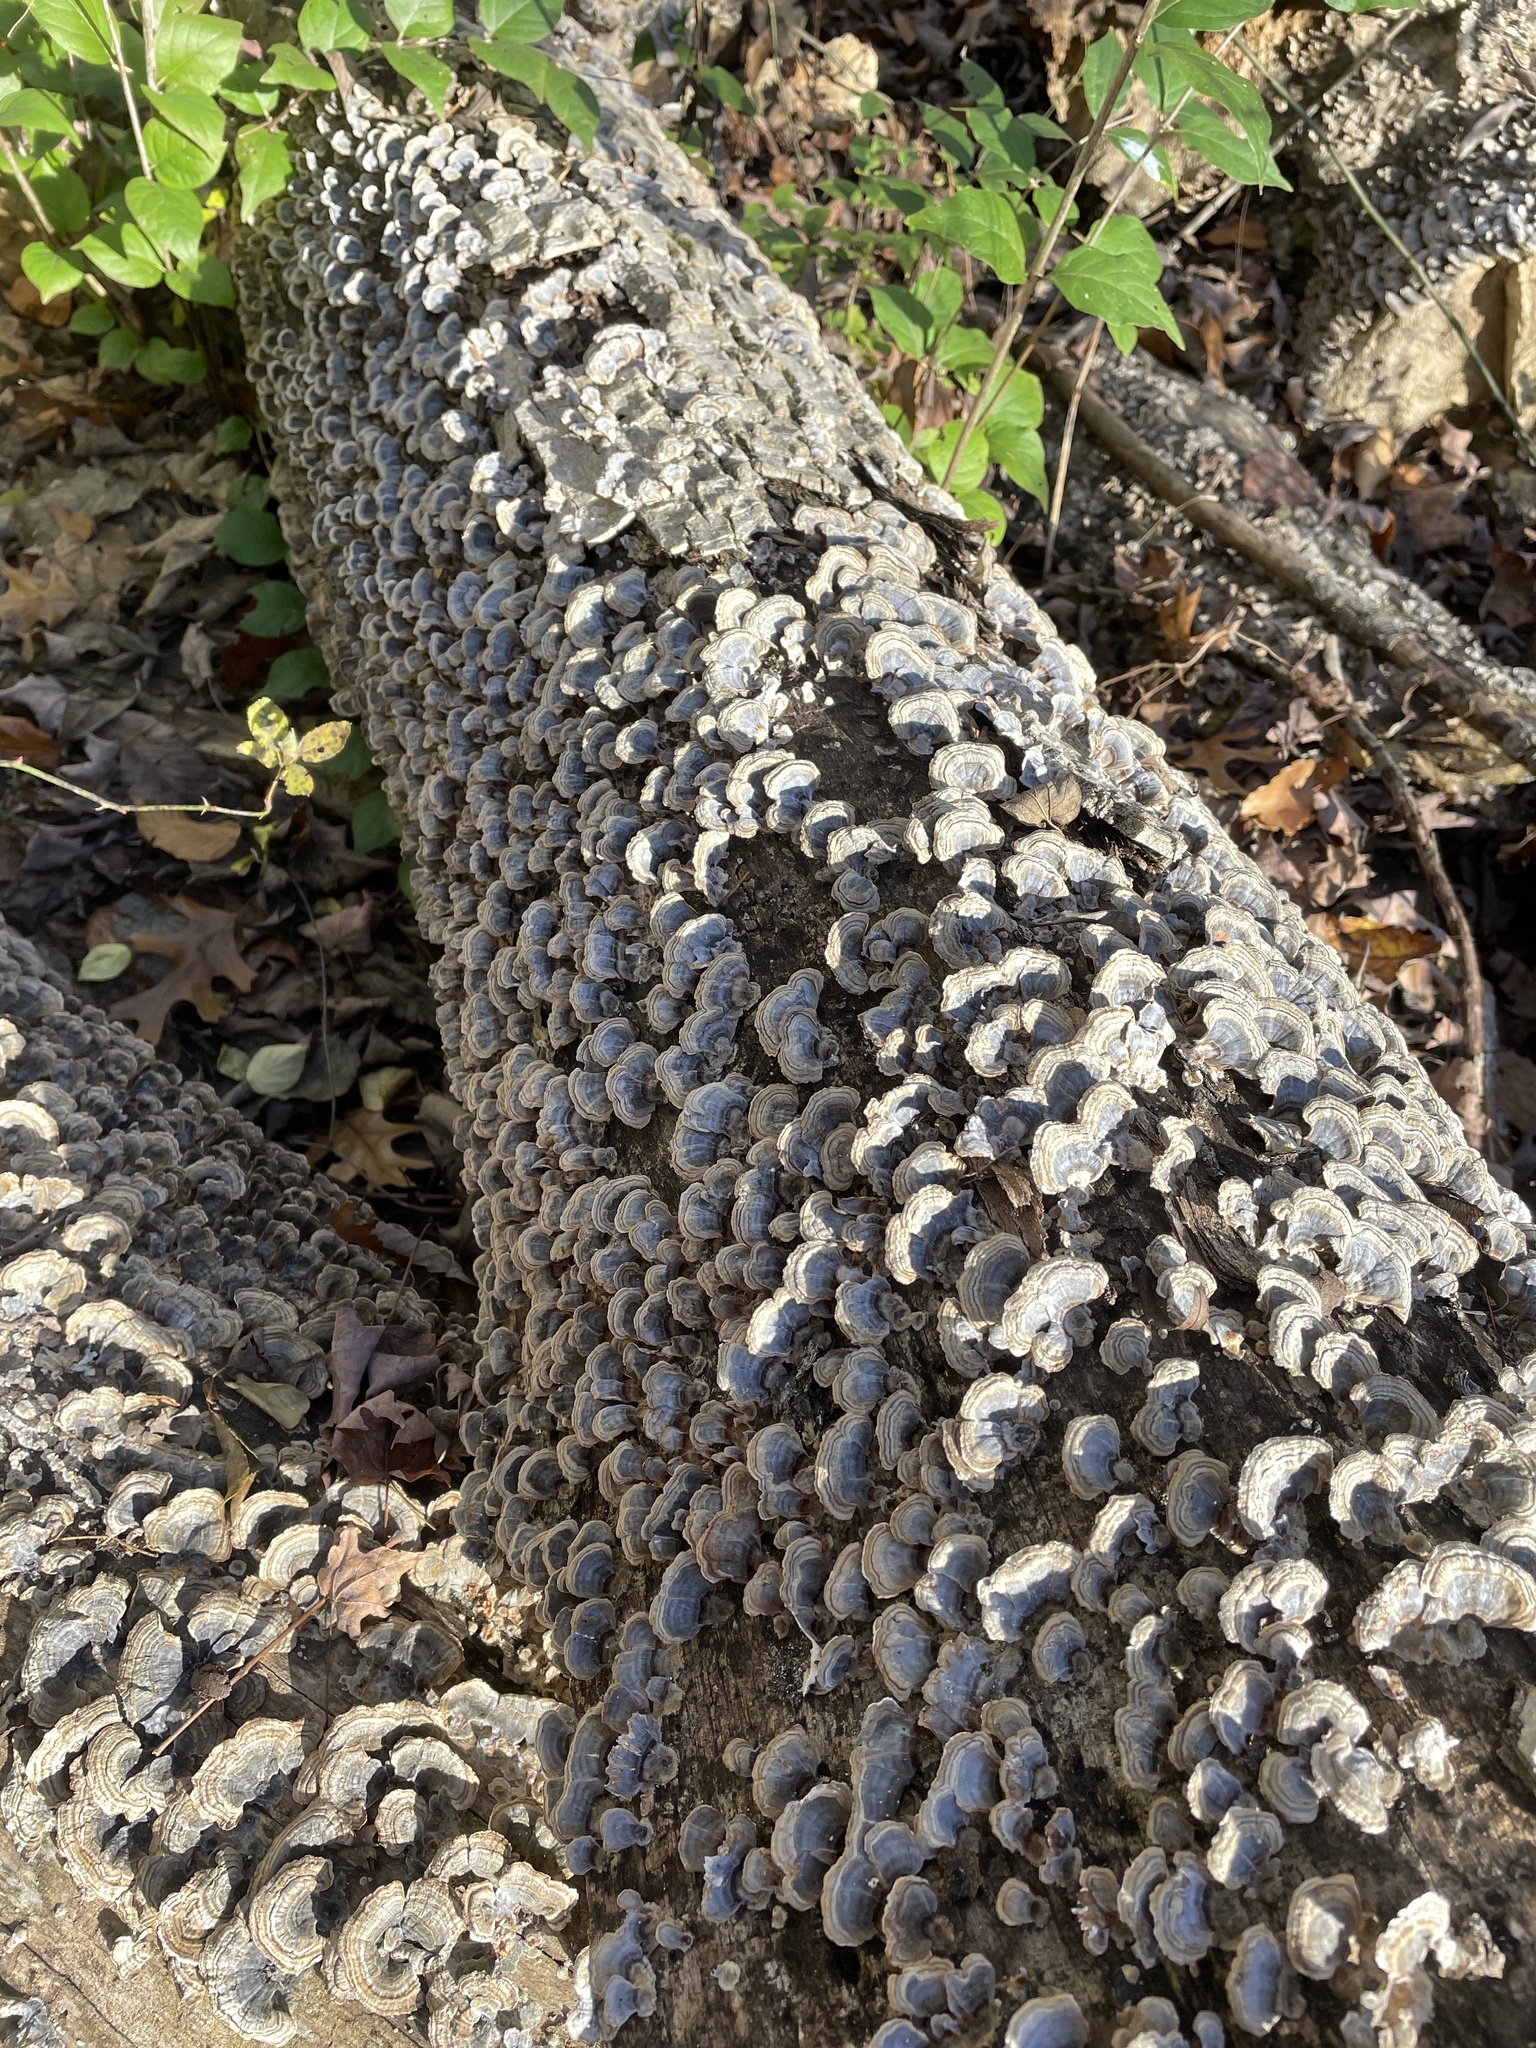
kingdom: Fungi
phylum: Basidiomycota
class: Agaricomycetes
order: Polyporales
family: Polyporaceae
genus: Trametes
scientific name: Trametes versicolor
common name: Turkeytail
